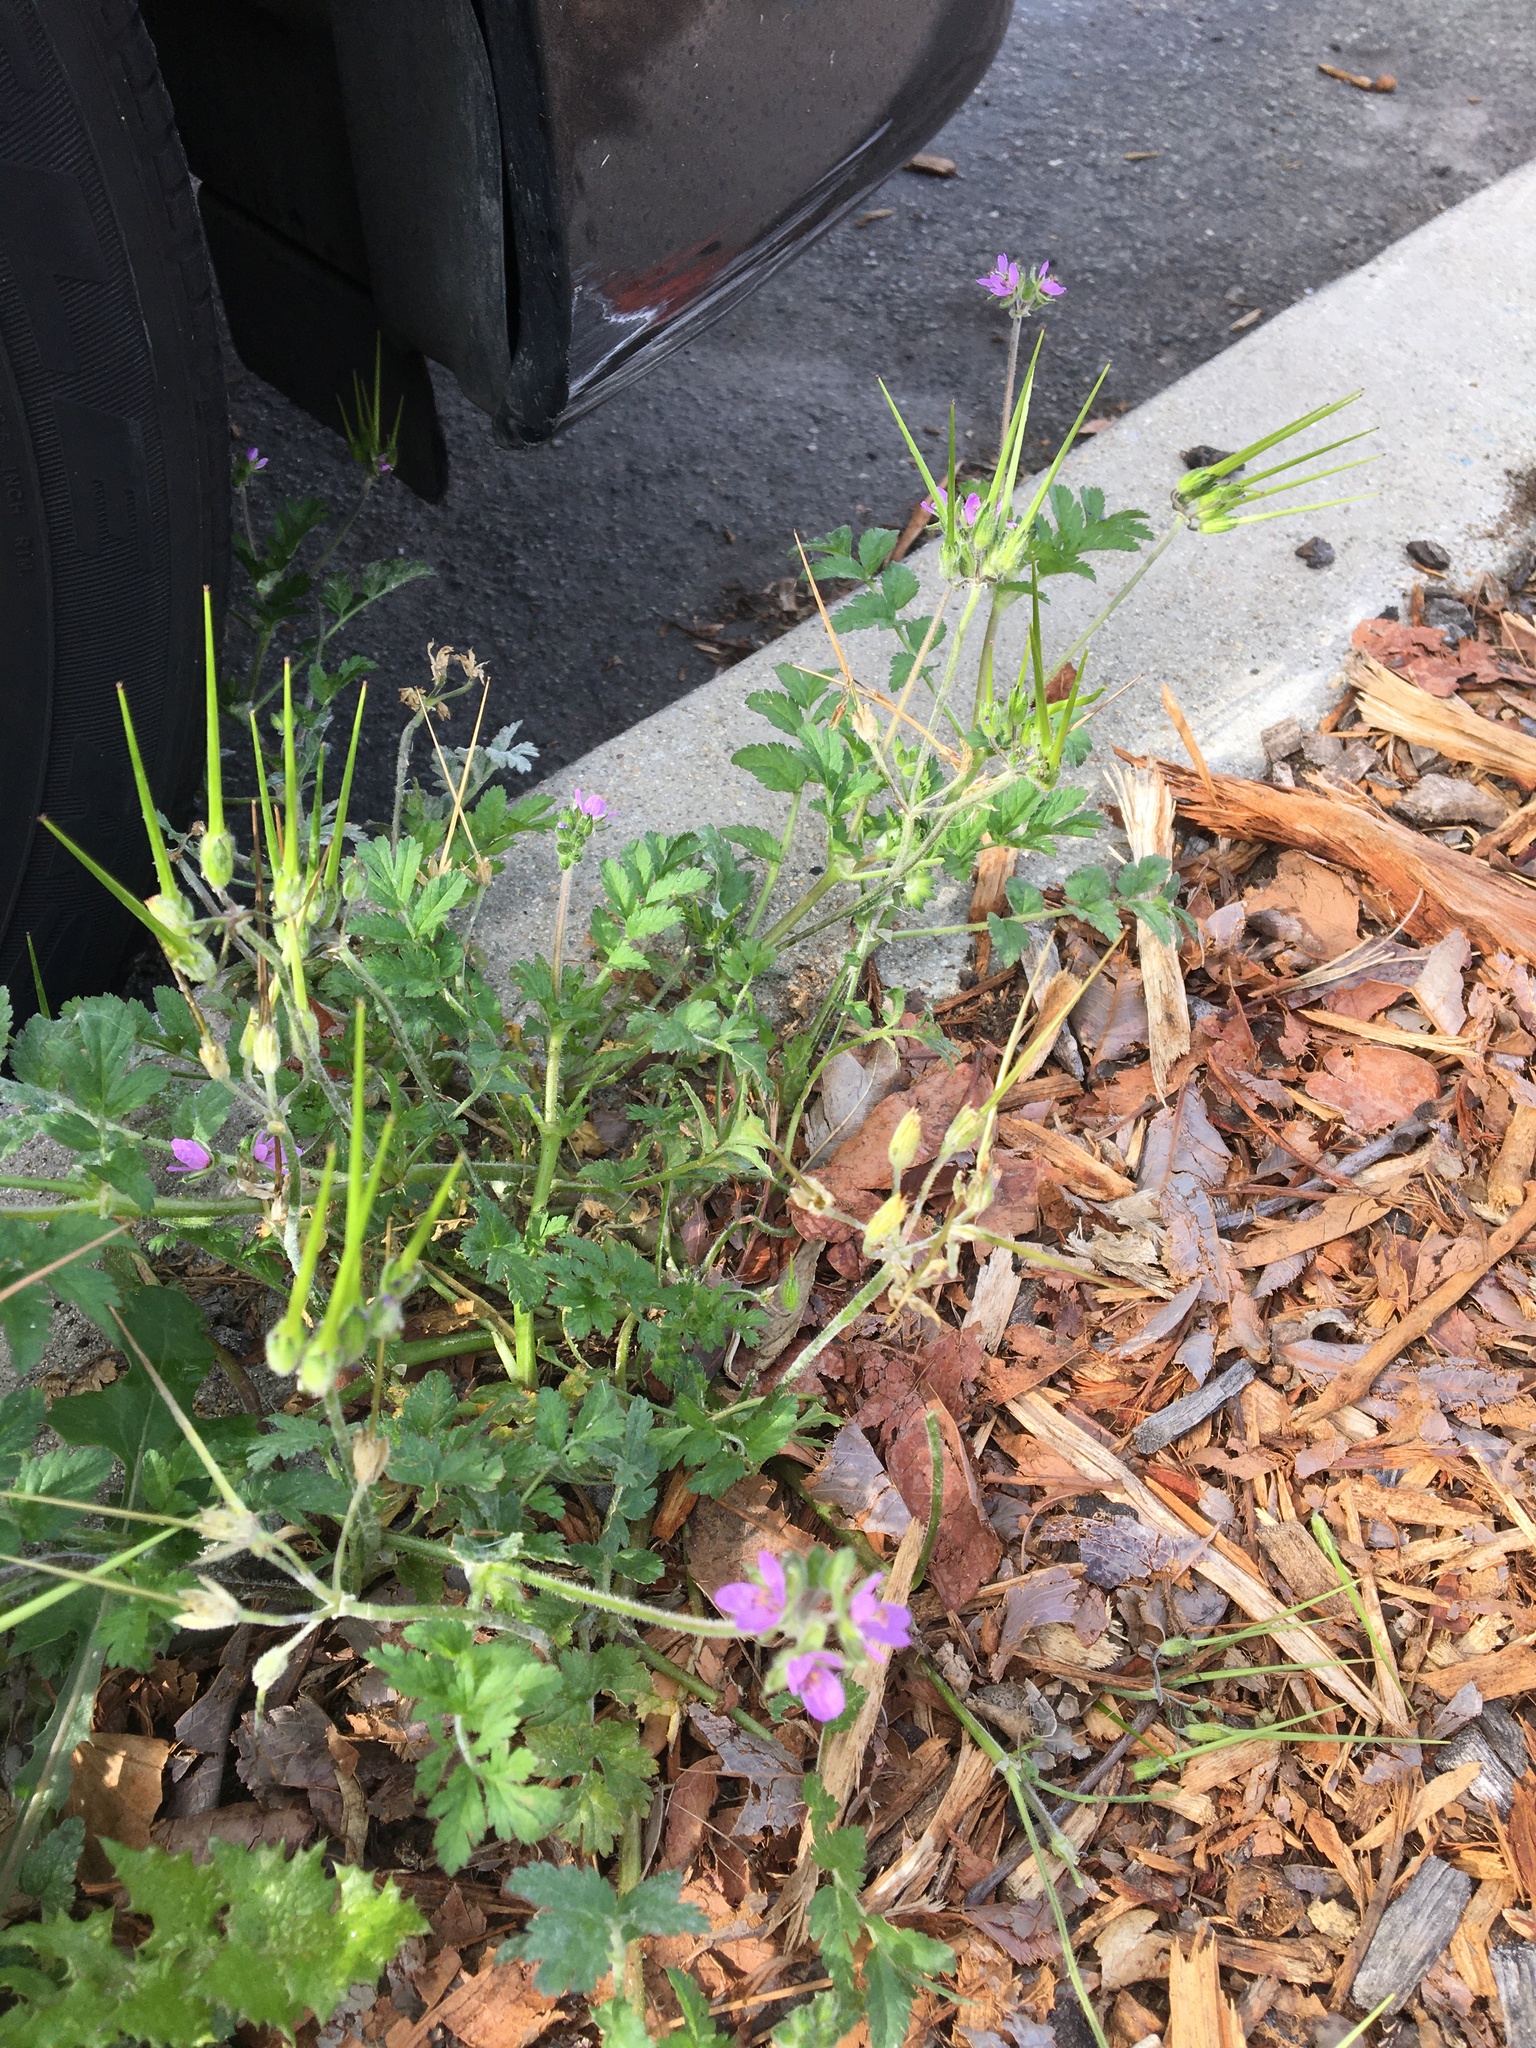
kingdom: Plantae
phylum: Tracheophyta
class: Magnoliopsida
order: Geraniales
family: Geraniaceae
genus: Erodium
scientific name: Erodium moschatum
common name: Musk stork's-bill
